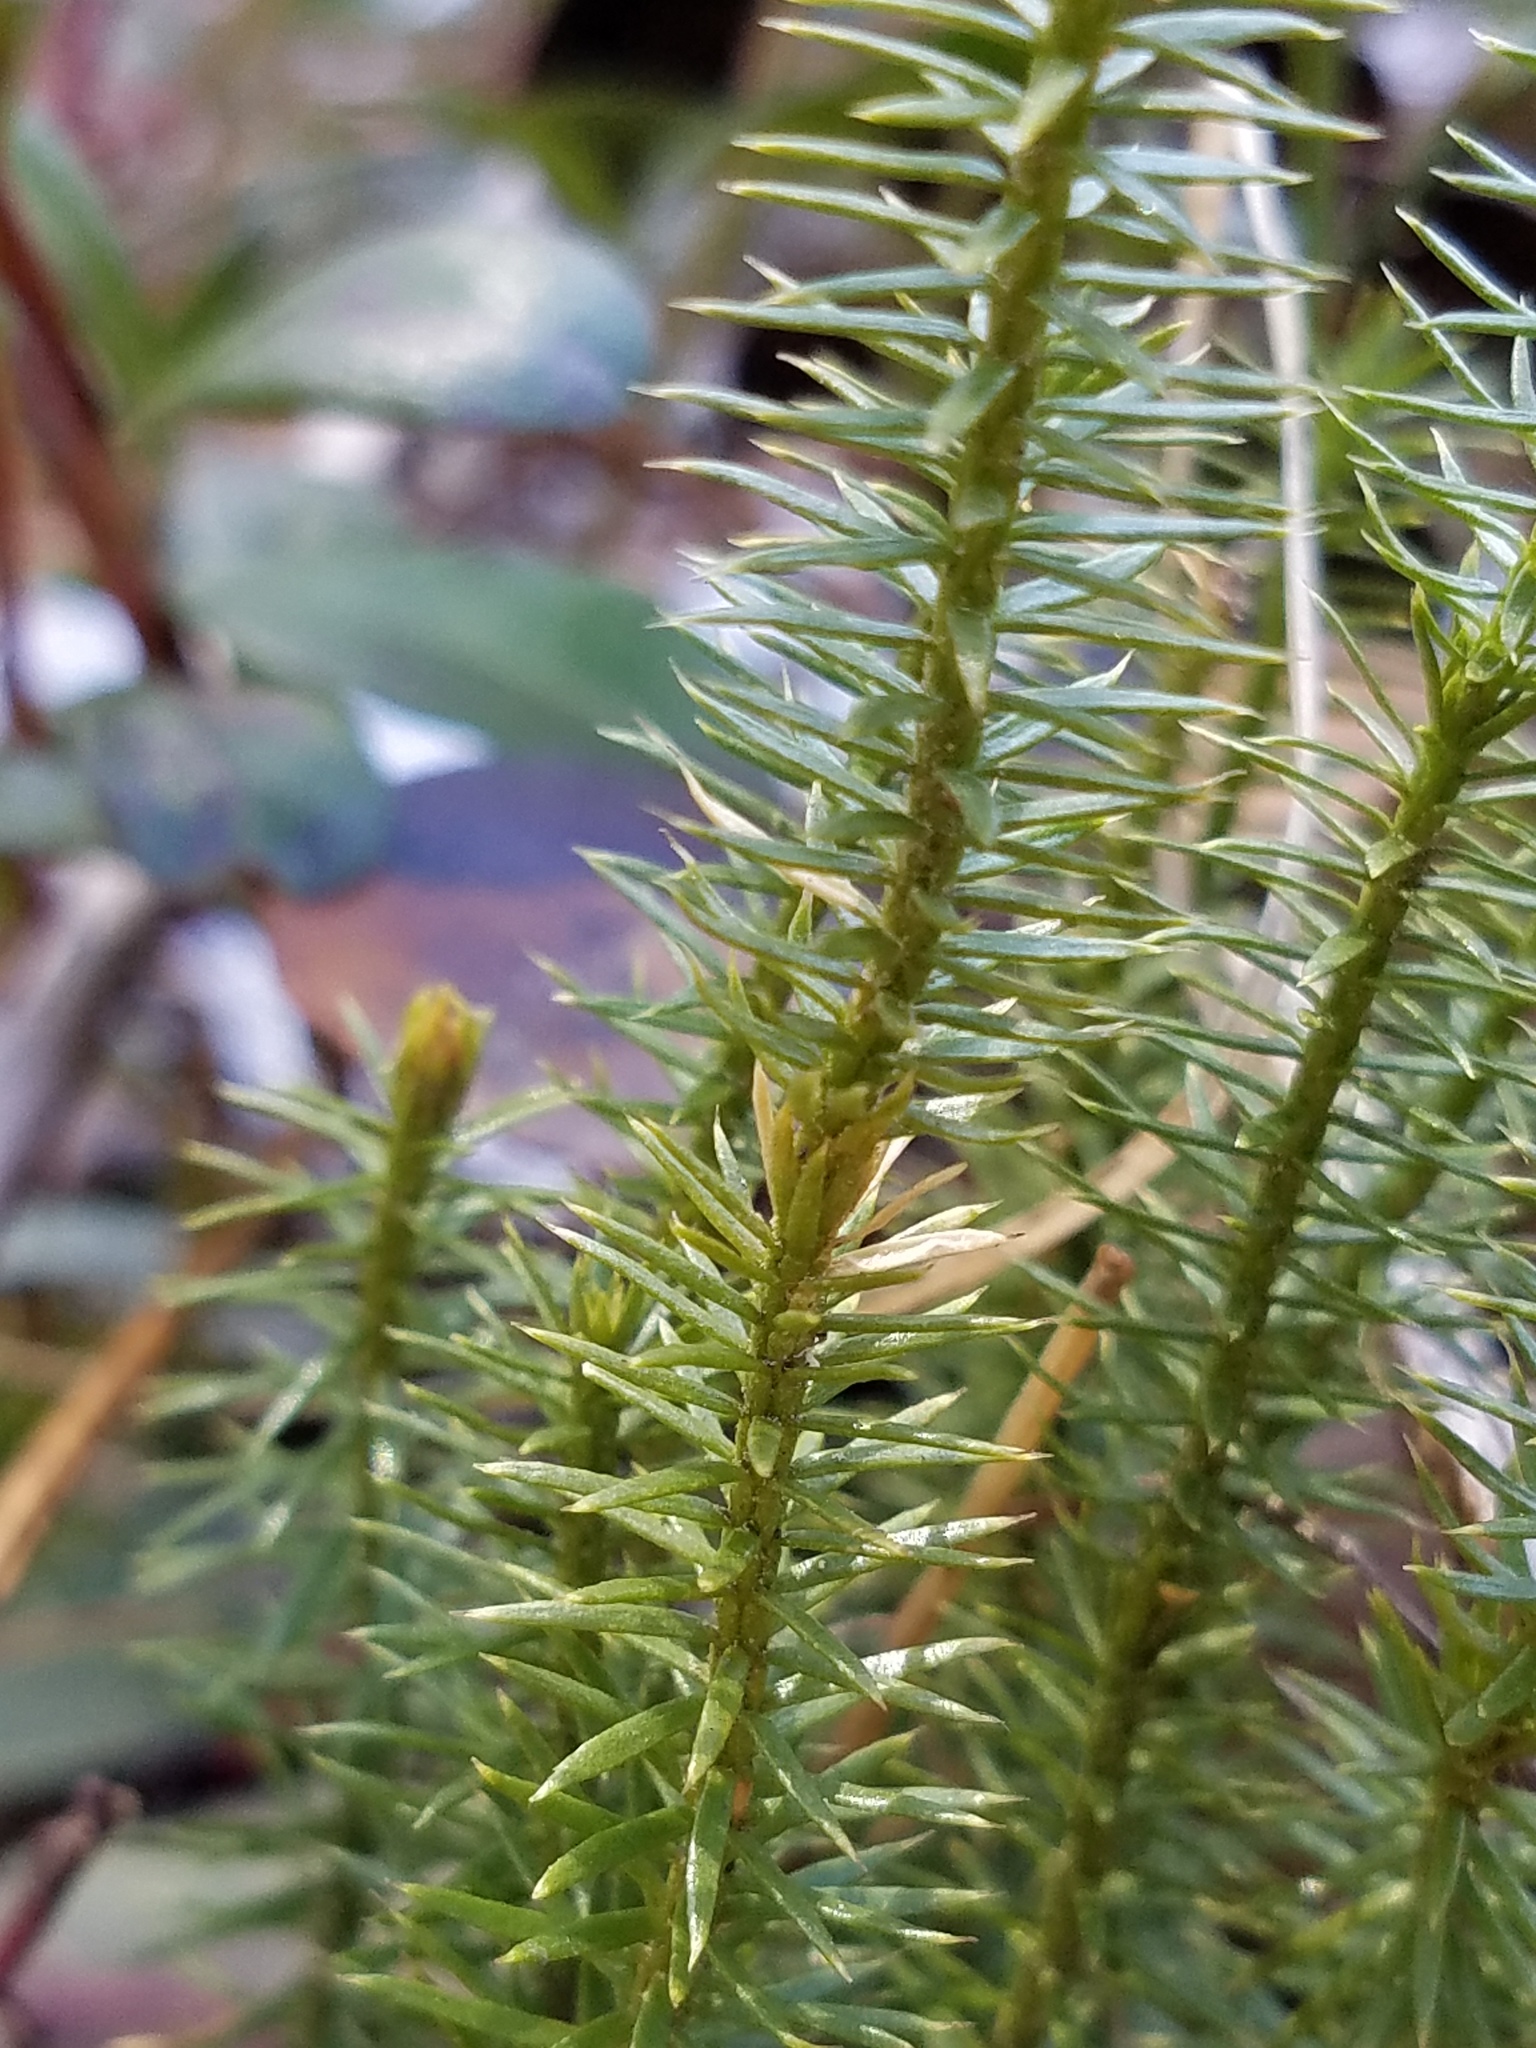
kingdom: Plantae
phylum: Tracheophyta
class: Lycopodiopsida
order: Lycopodiales
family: Lycopodiaceae
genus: Spinulum
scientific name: Spinulum annotinum
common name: Interrupted club-moss
